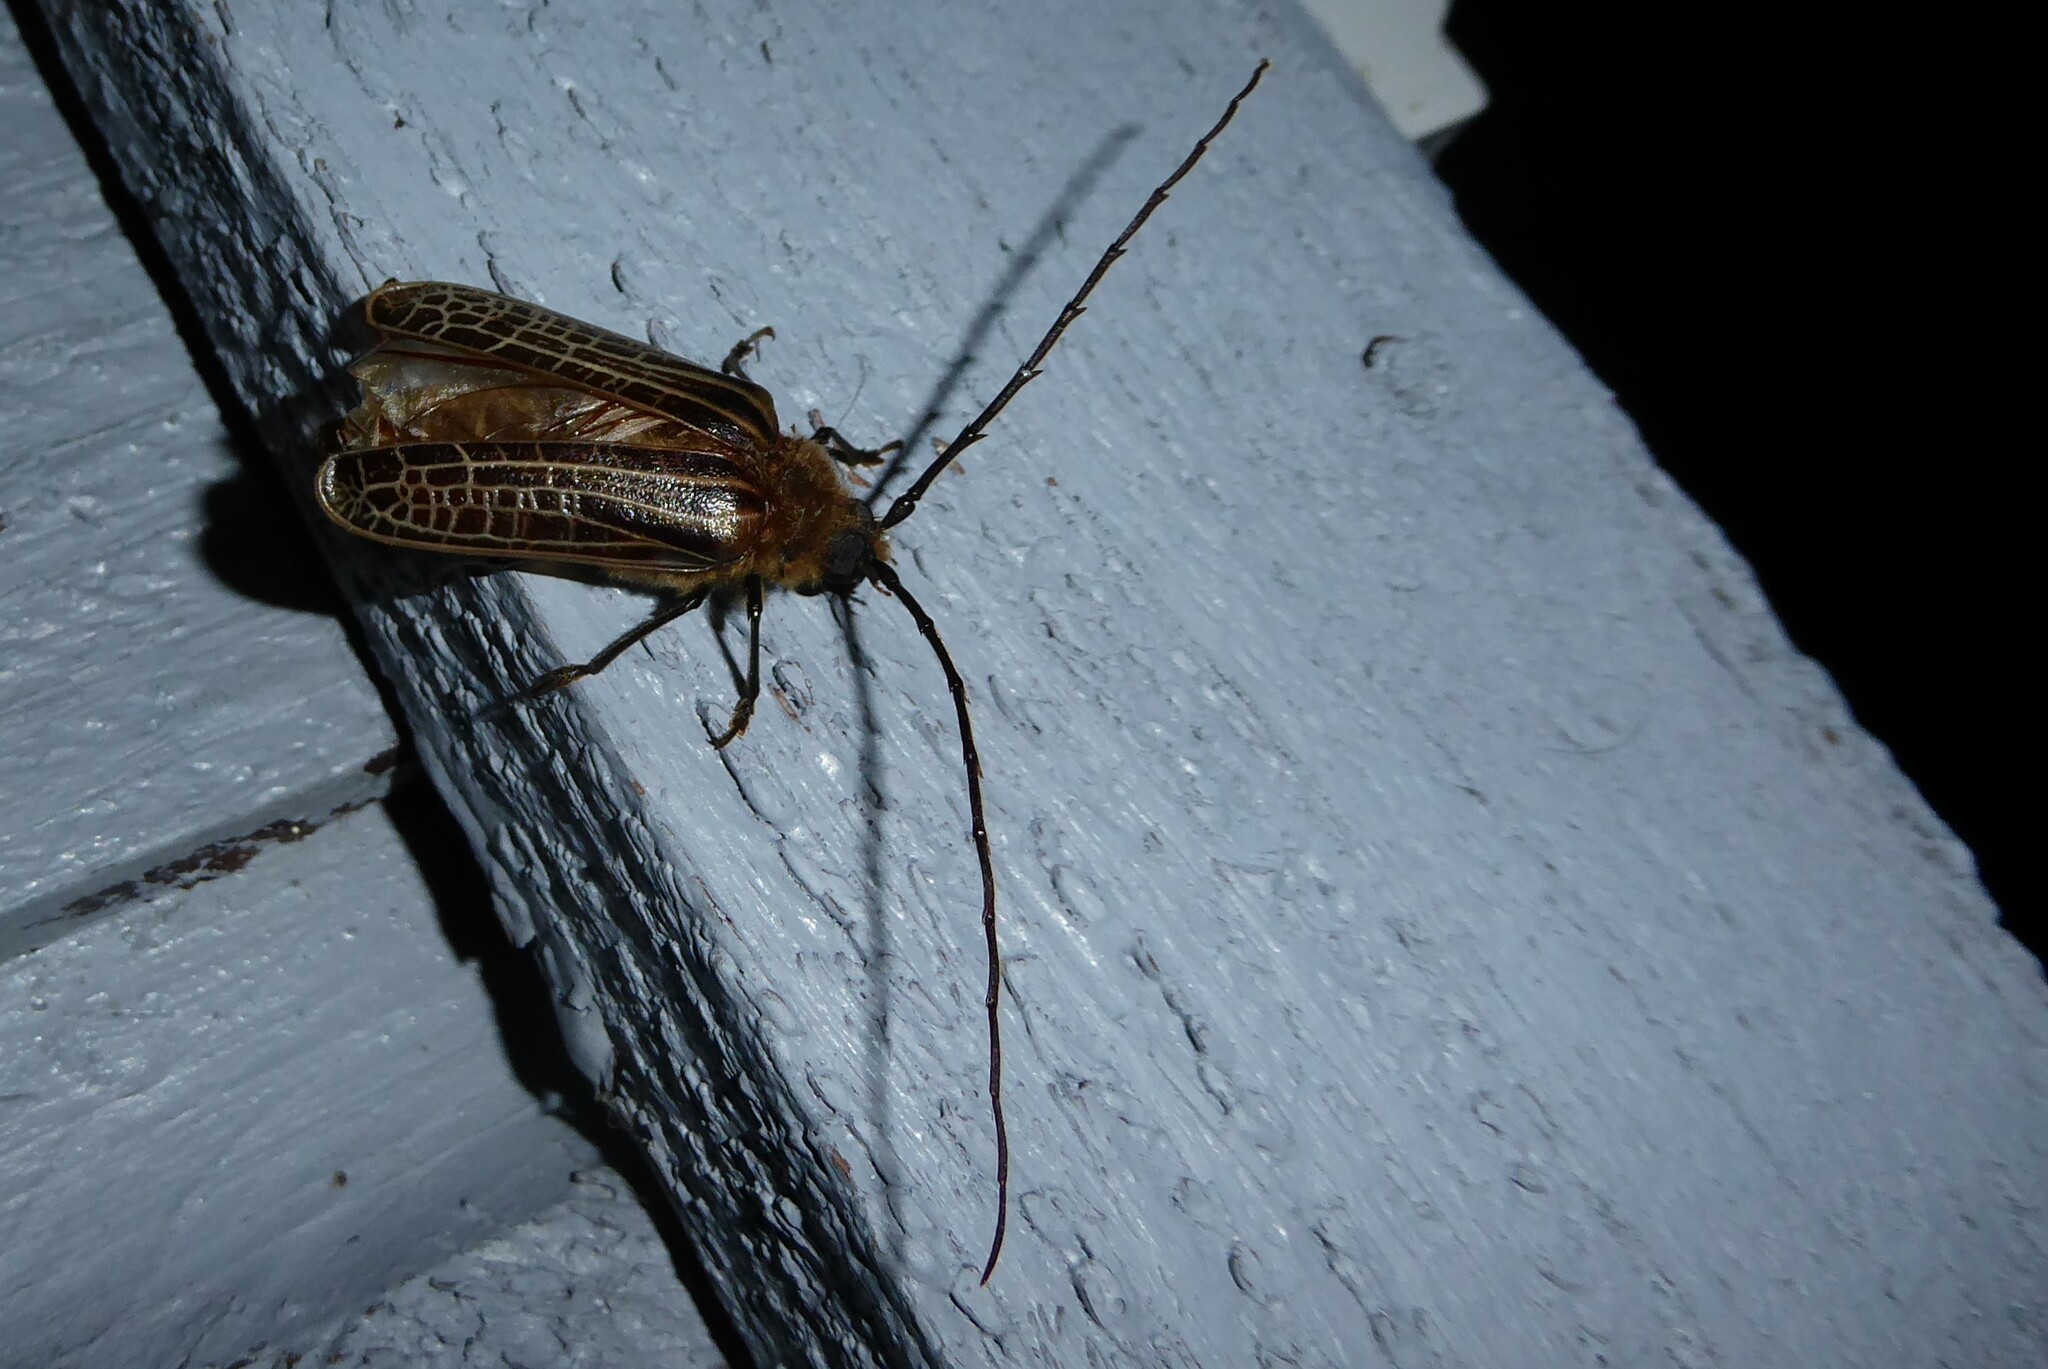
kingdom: Animalia
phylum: Arthropoda
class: Insecta
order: Coleoptera
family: Cerambycidae
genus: Prionoplus
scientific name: Prionoplus reticularis
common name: Huhu beetle
